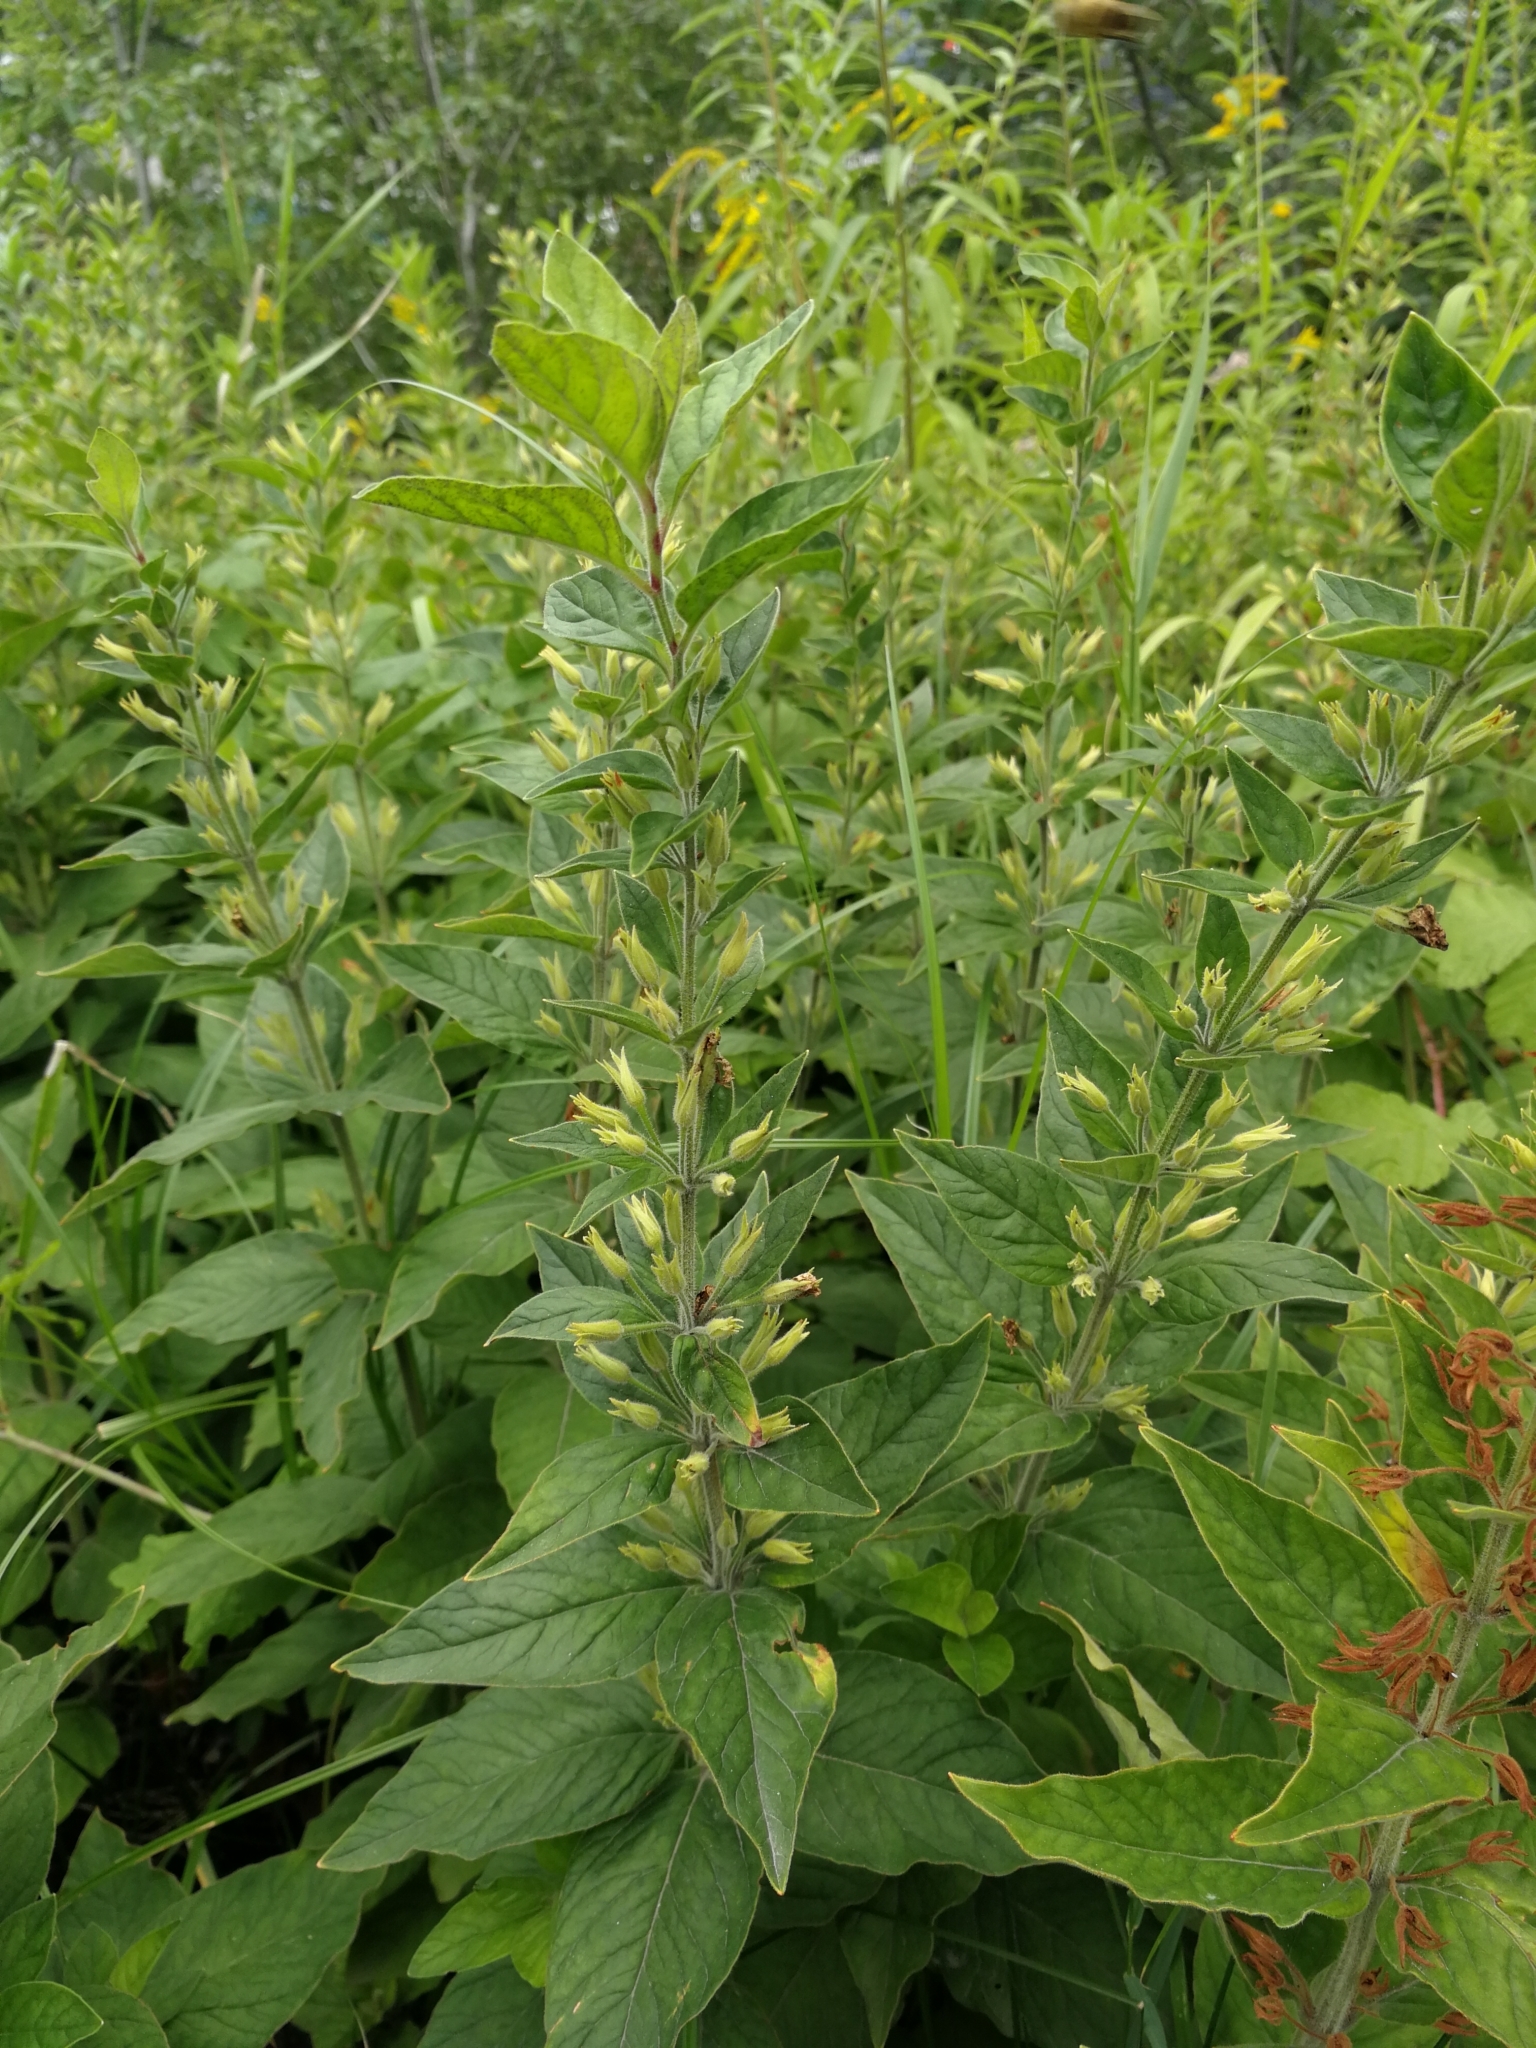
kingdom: Plantae
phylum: Tracheophyta
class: Magnoliopsida
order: Ericales
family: Primulaceae
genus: Lysimachia
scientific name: Lysimachia punctata
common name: Dotted loosestrife
